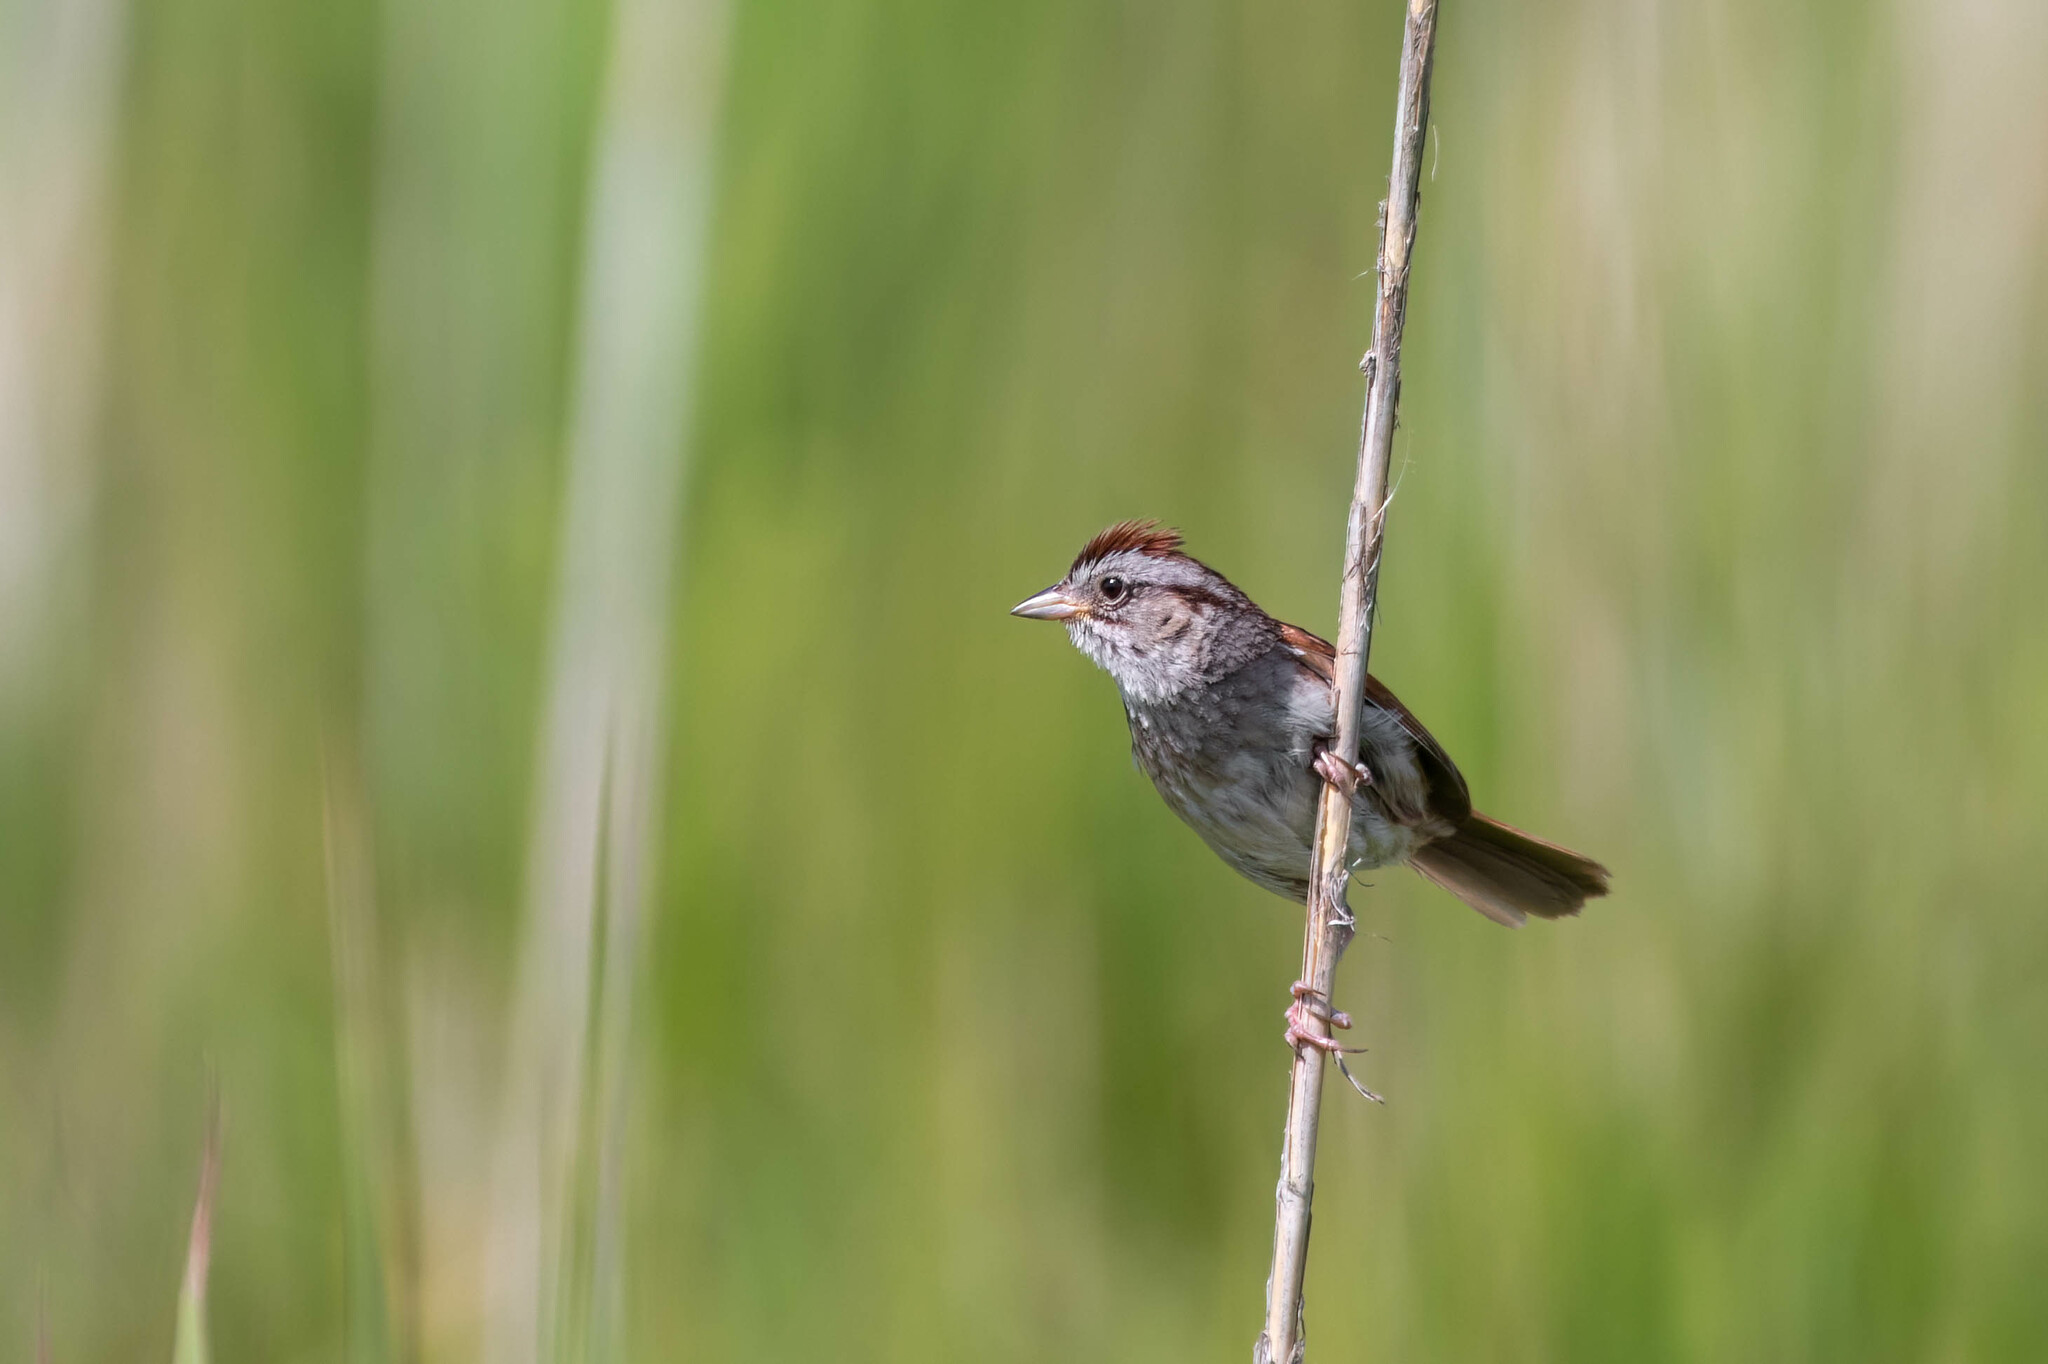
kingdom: Animalia
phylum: Chordata
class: Aves
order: Passeriformes
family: Passerellidae
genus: Melospiza
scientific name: Melospiza georgiana
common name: Swamp sparrow
